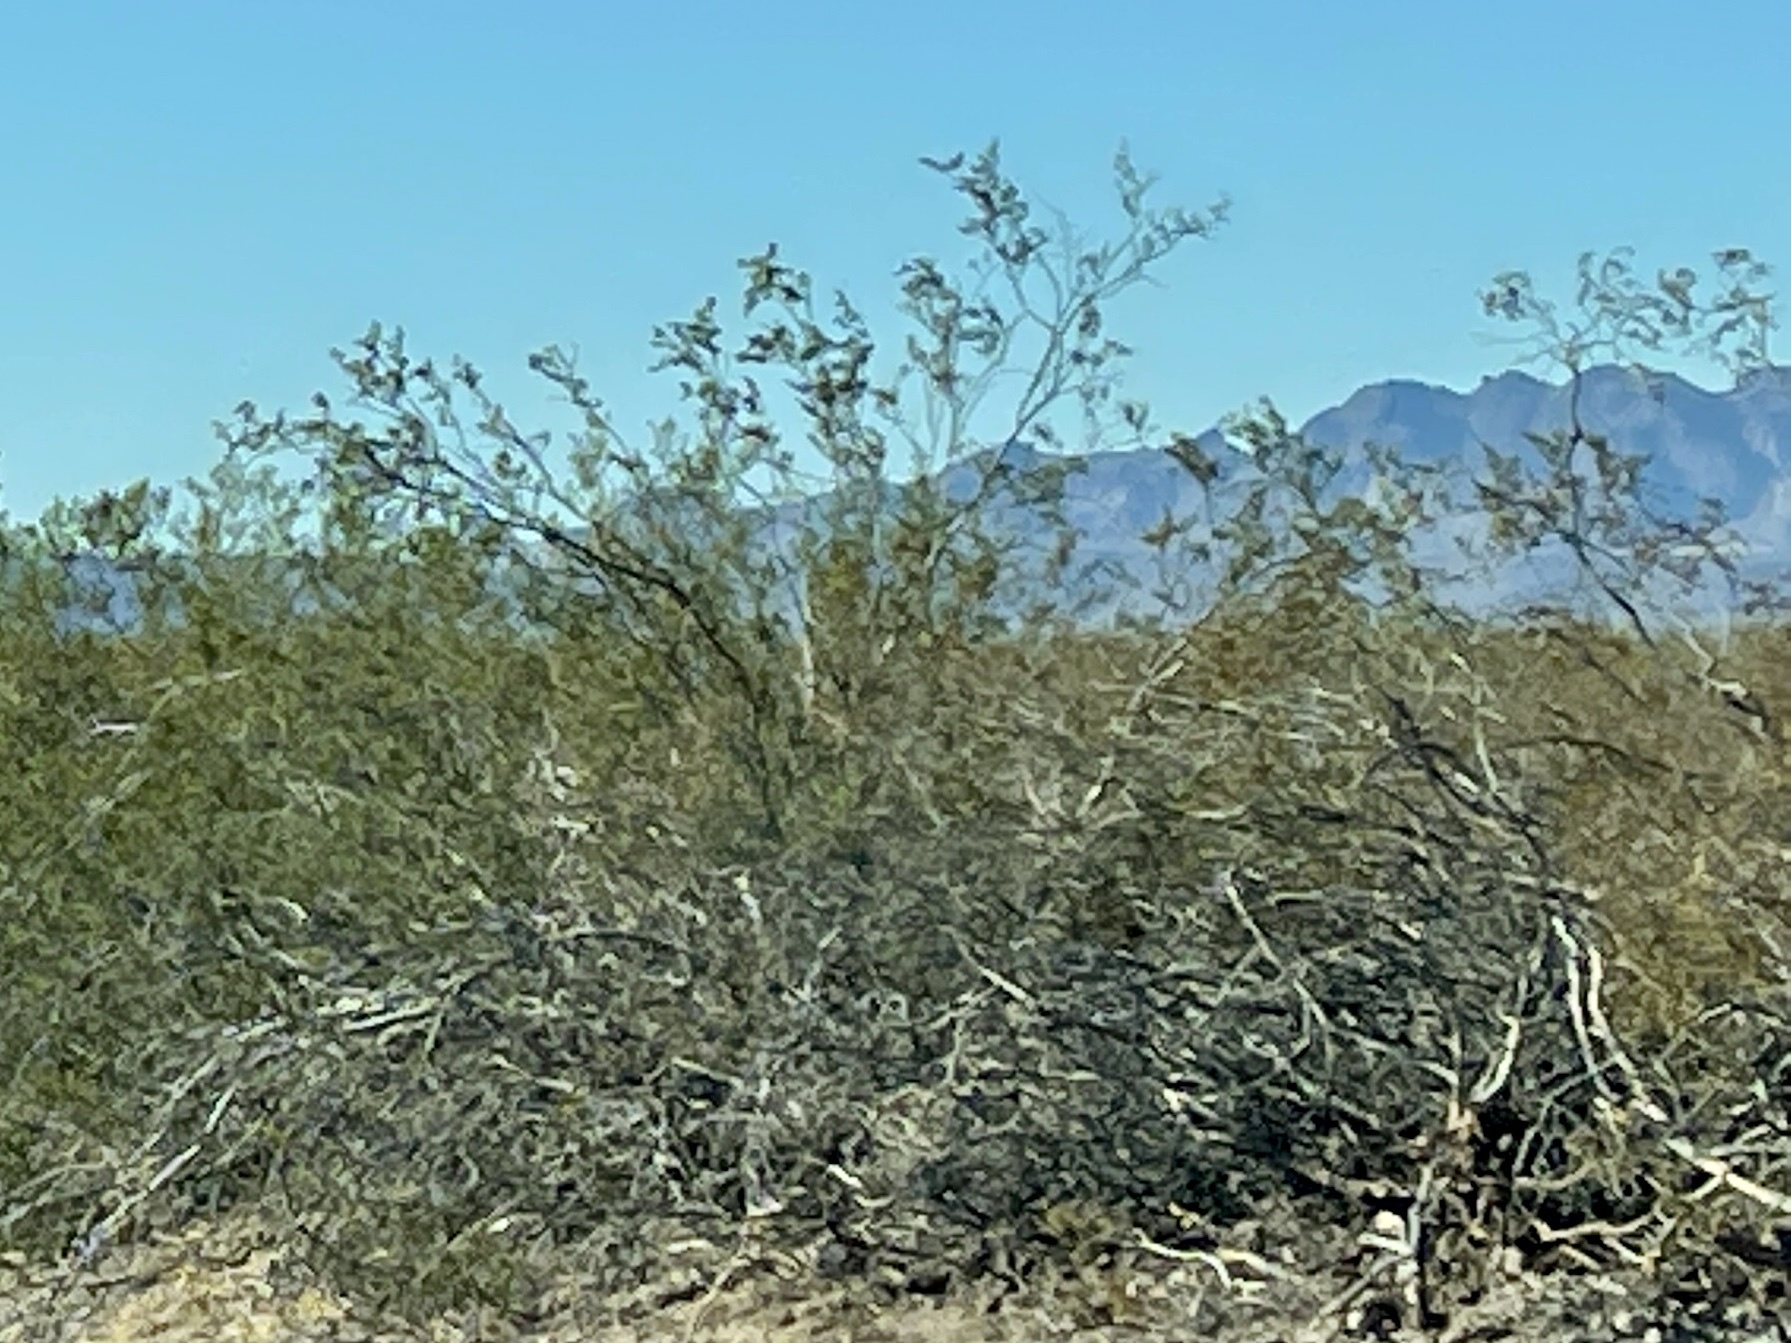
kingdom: Plantae
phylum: Tracheophyta
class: Magnoliopsida
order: Zygophyllales
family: Zygophyllaceae
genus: Larrea
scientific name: Larrea tridentata
